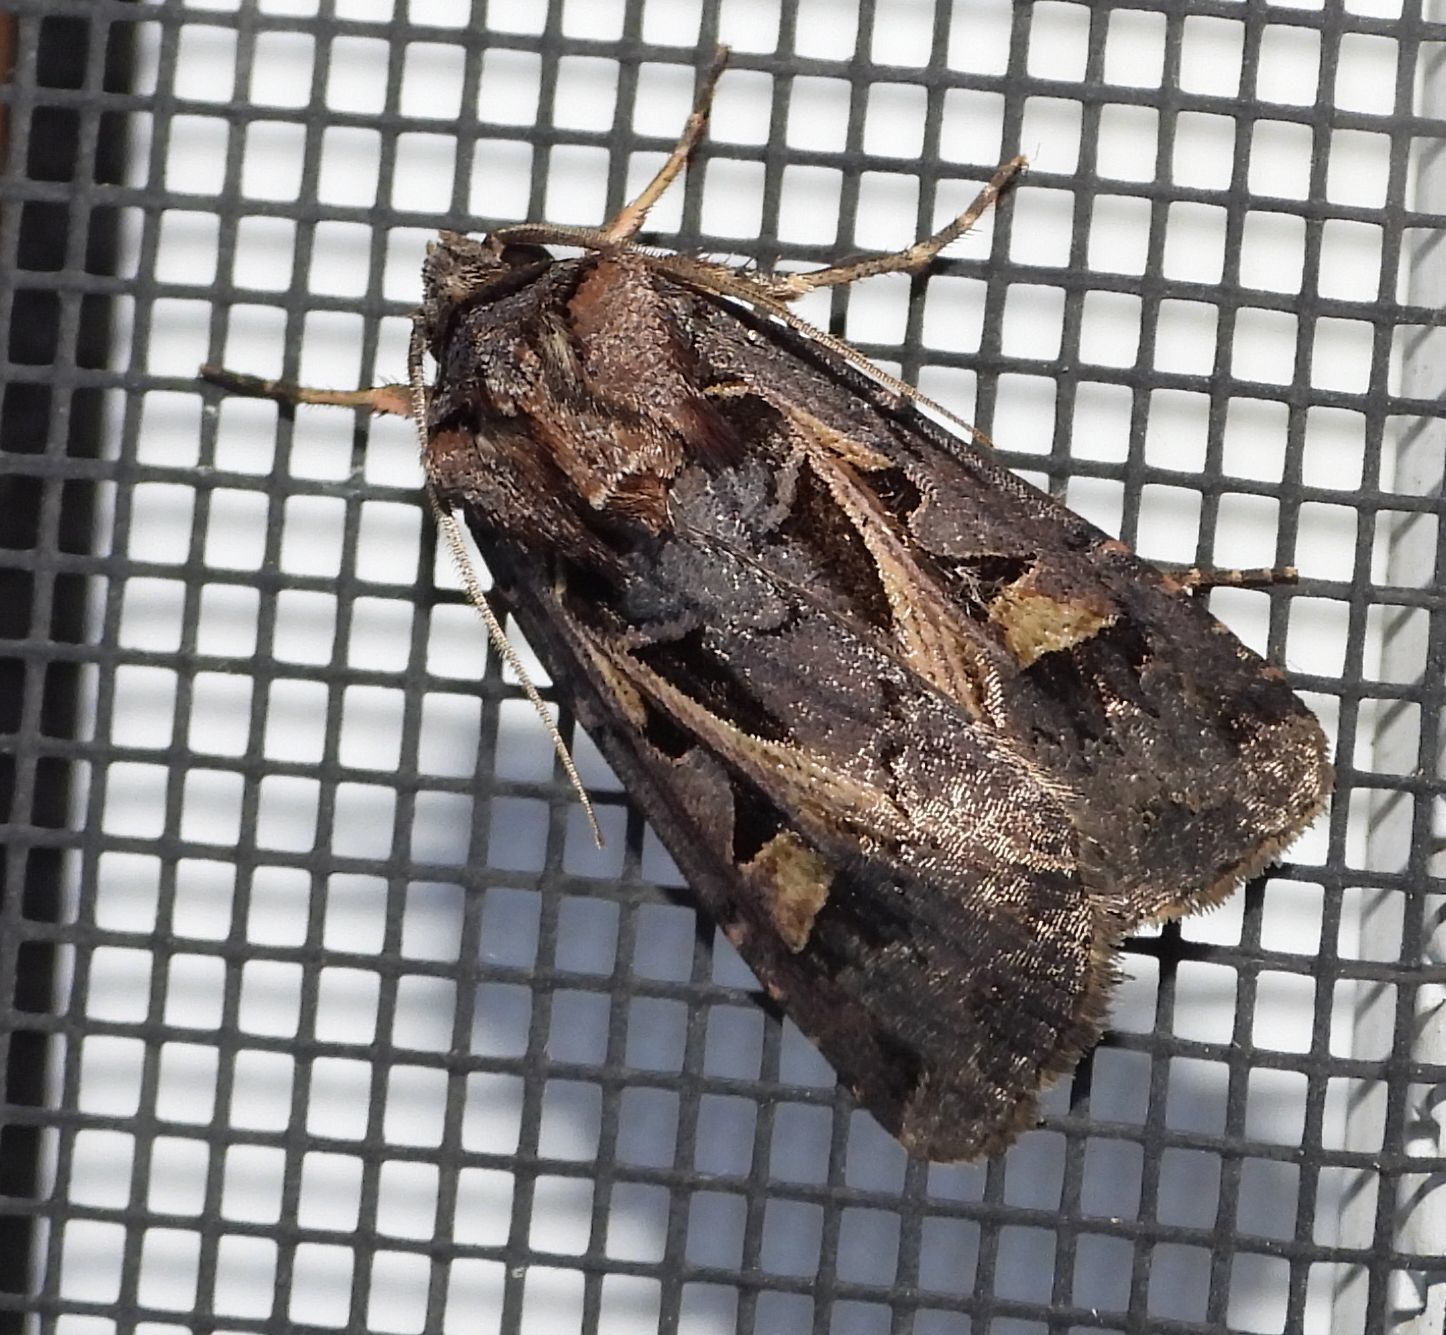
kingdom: Animalia
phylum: Arthropoda
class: Insecta
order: Lepidoptera
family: Noctuidae
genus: Feltia
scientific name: Feltia herilis
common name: Master's dart
